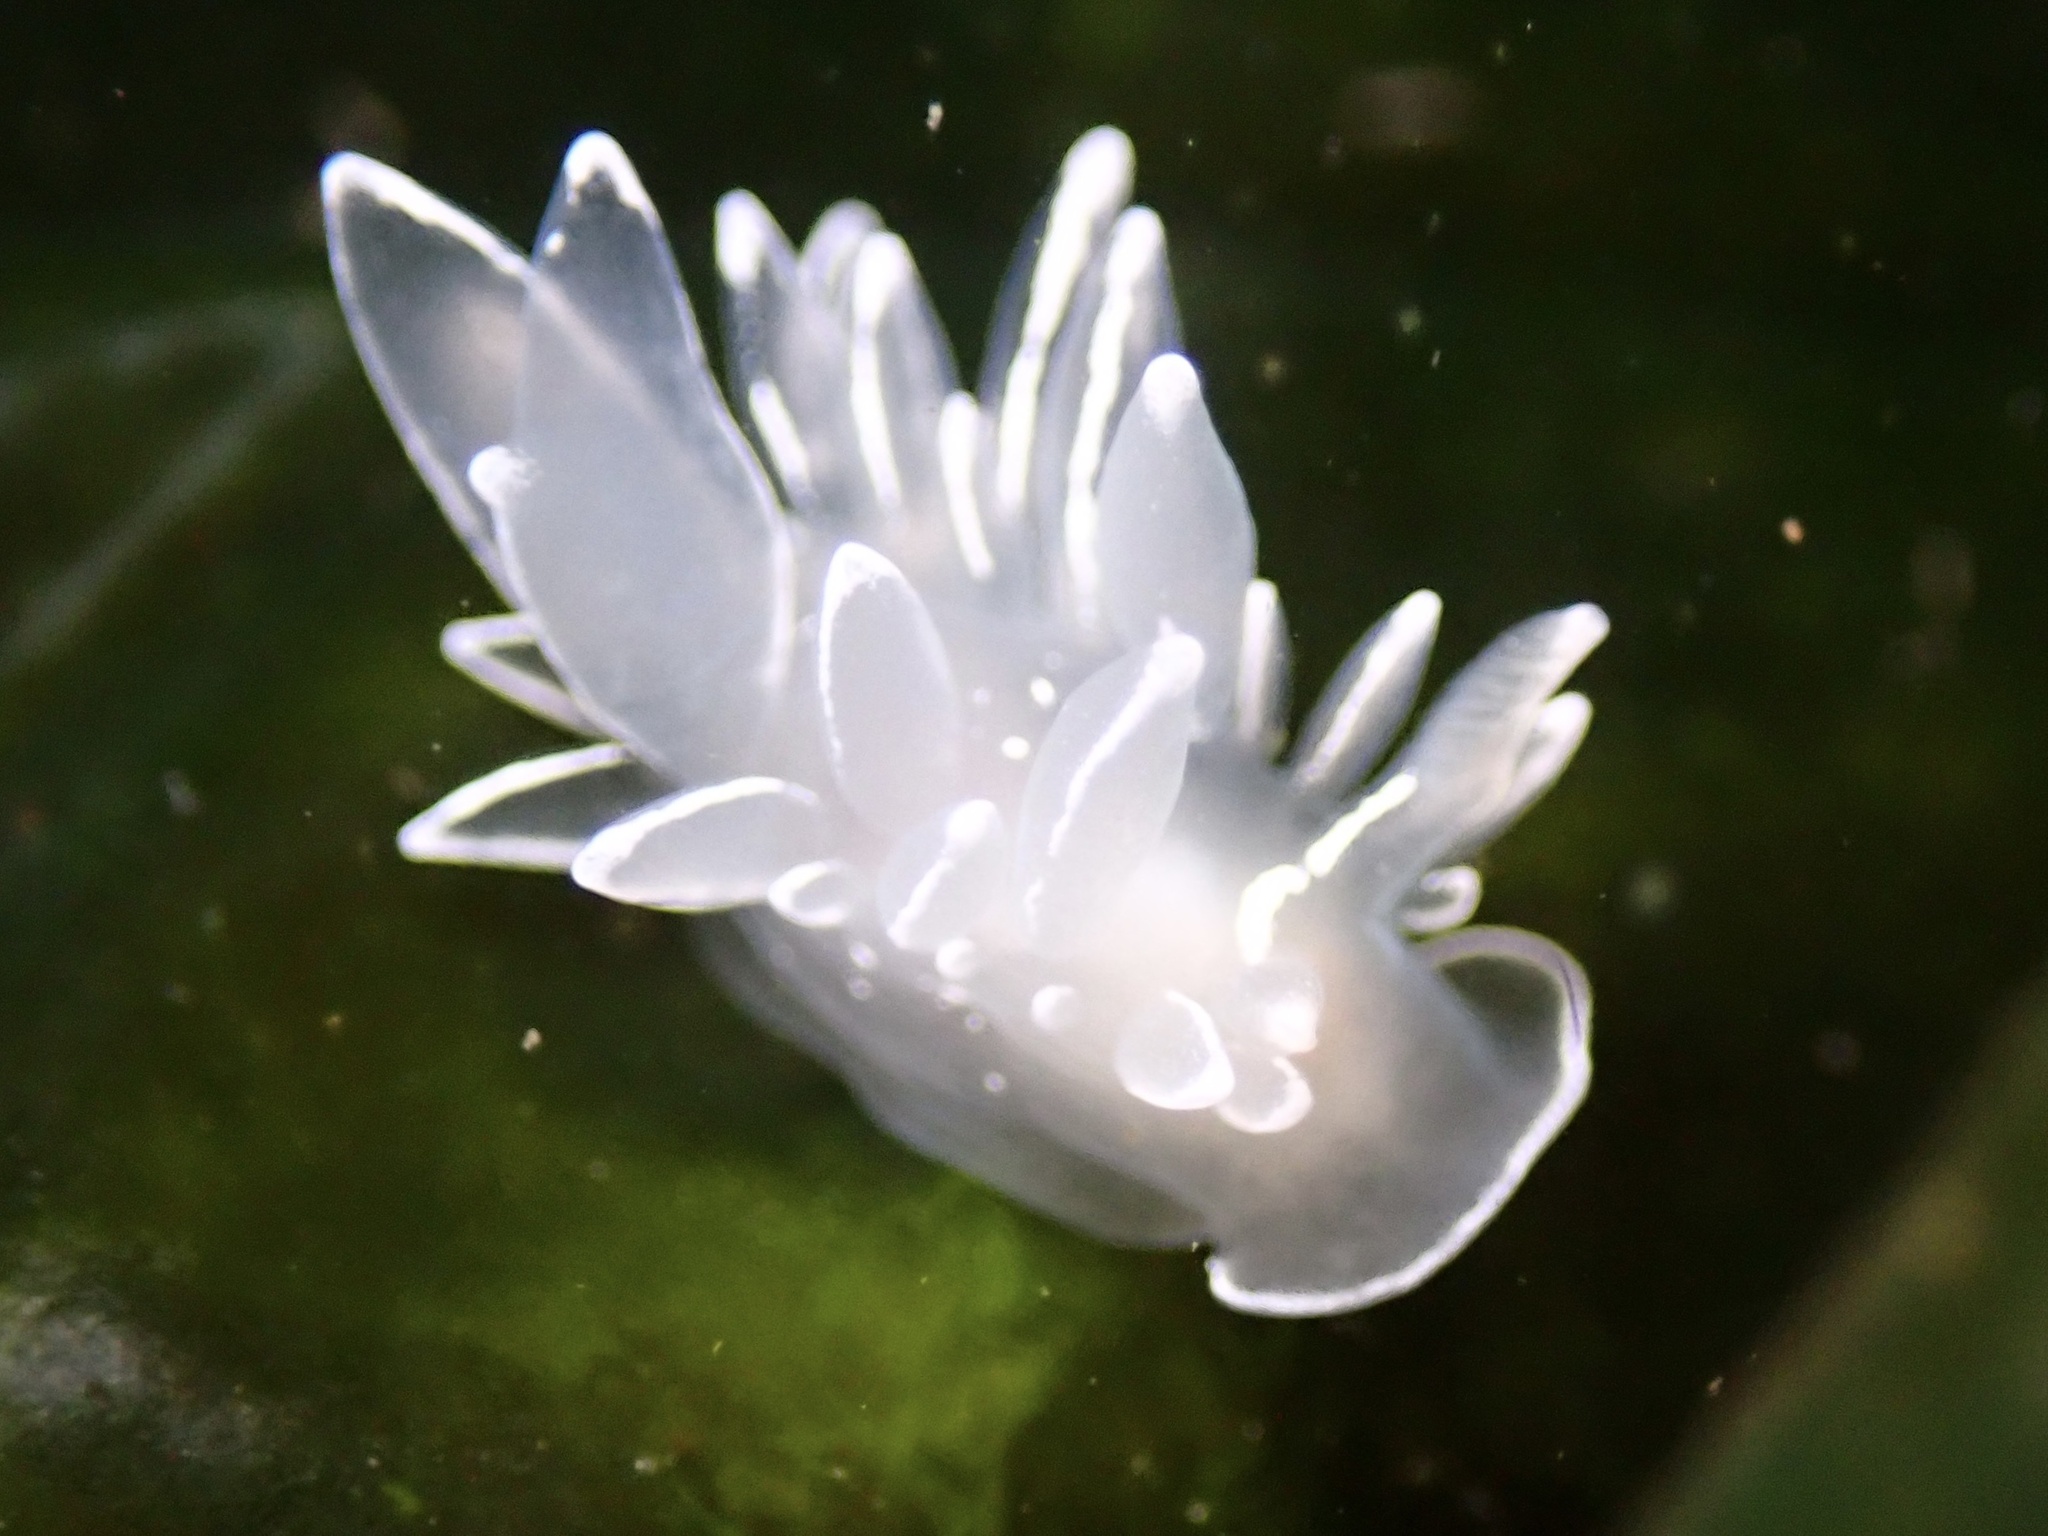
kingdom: Animalia
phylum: Mollusca
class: Gastropoda
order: Nudibranchia
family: Dironidae
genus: Dirona
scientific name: Dirona albolineata
